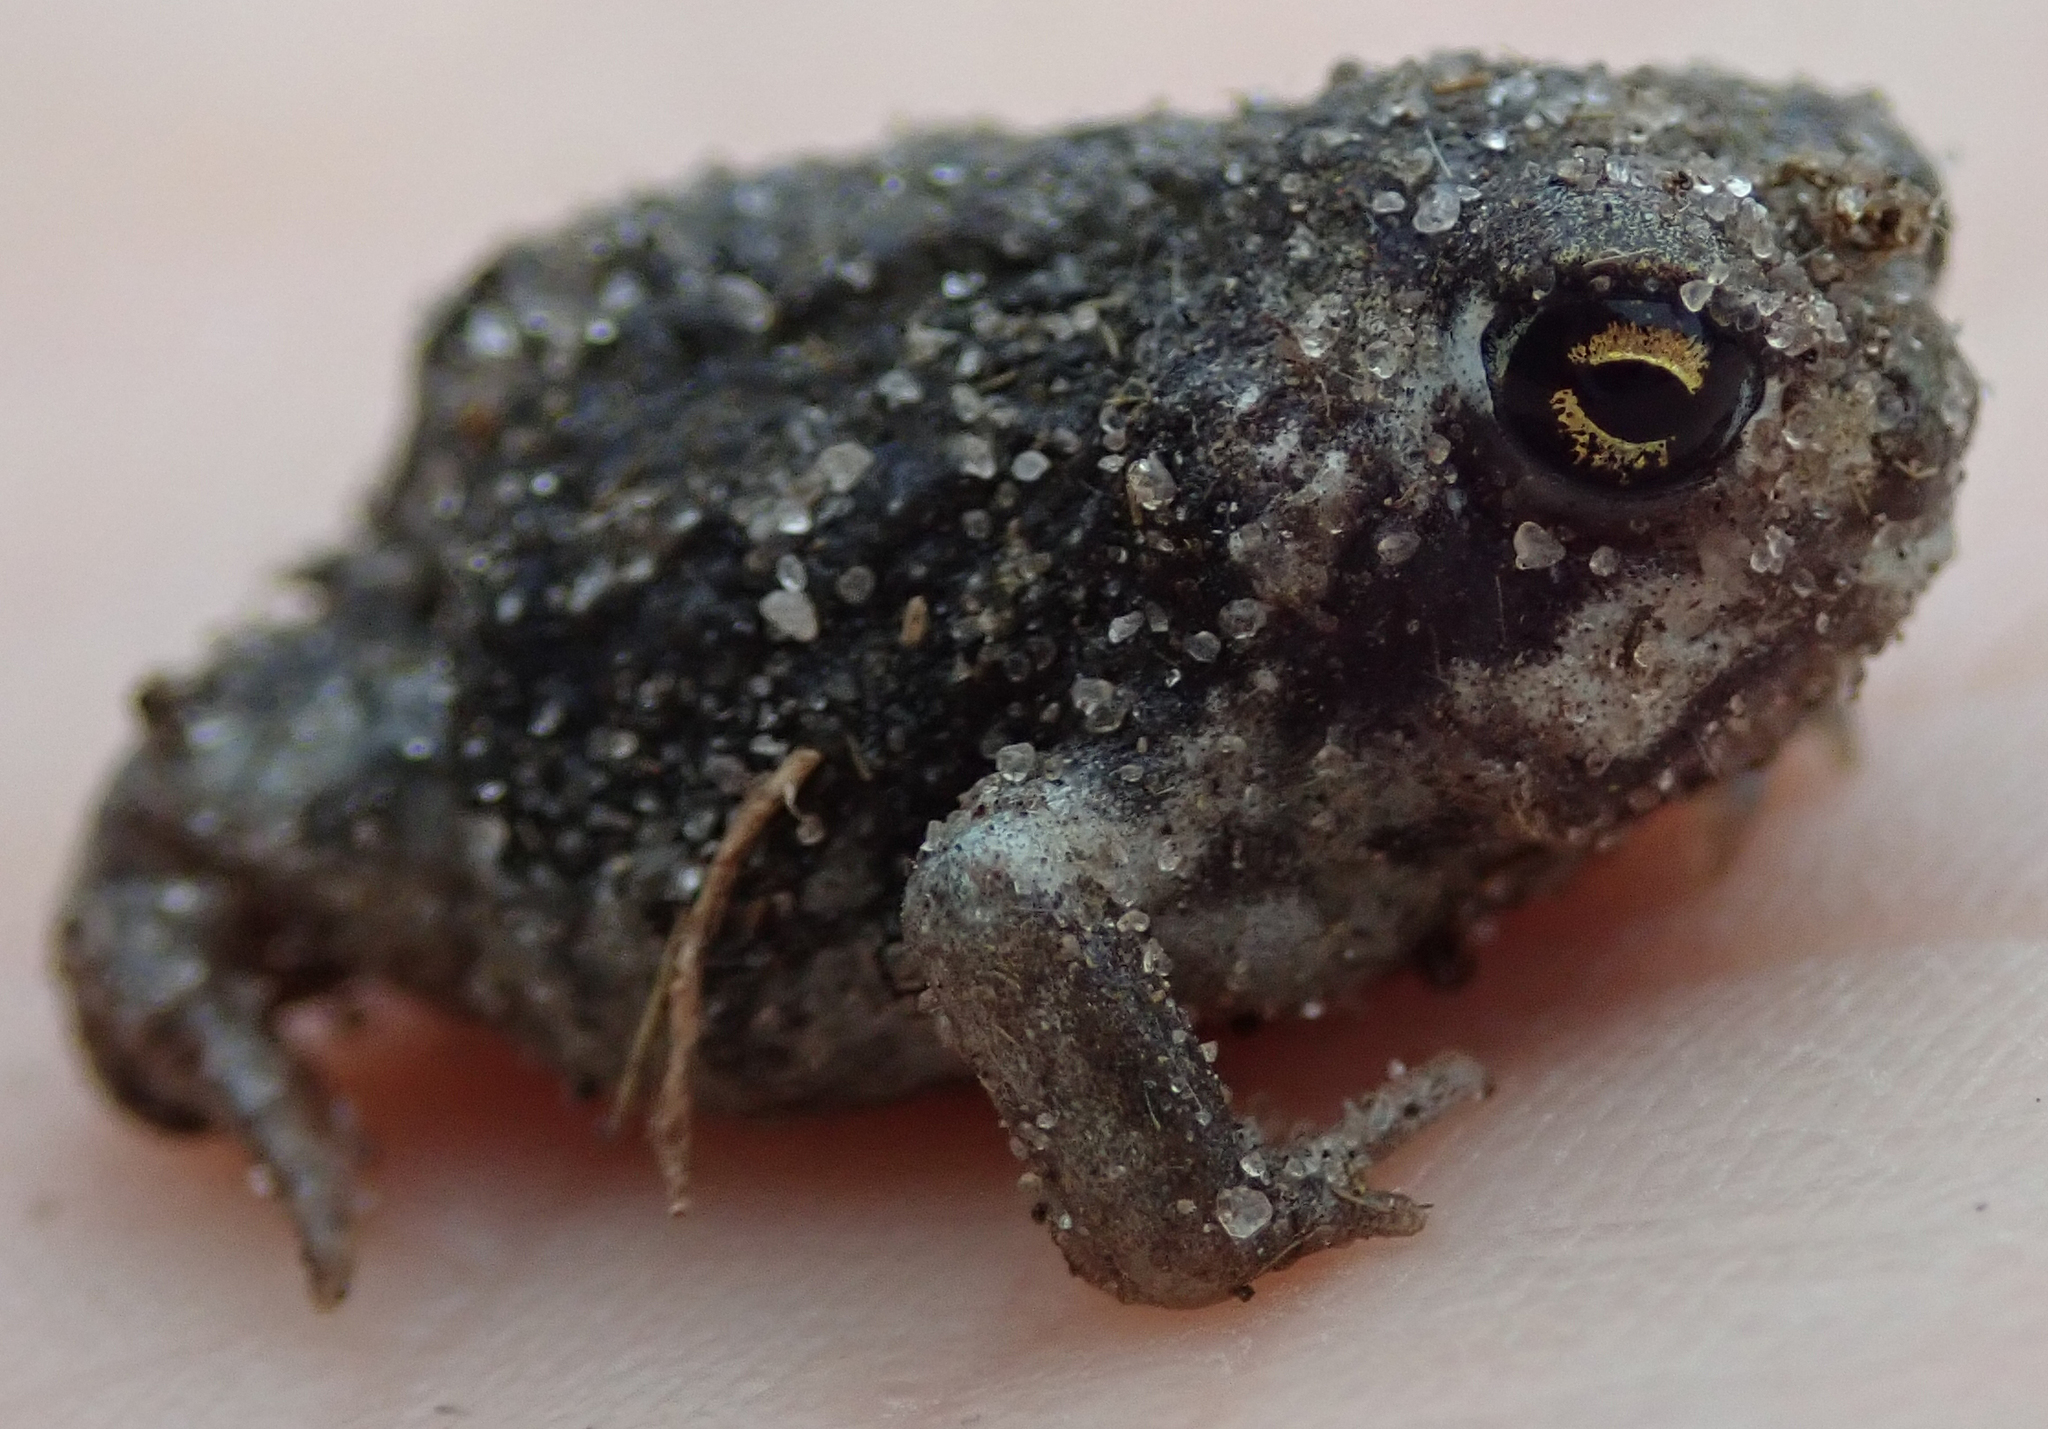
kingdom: Animalia
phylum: Chordata
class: Amphibia
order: Anura
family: Brevicipitidae
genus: Breviceps
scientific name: Breviceps adspersus
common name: Common rain frog
